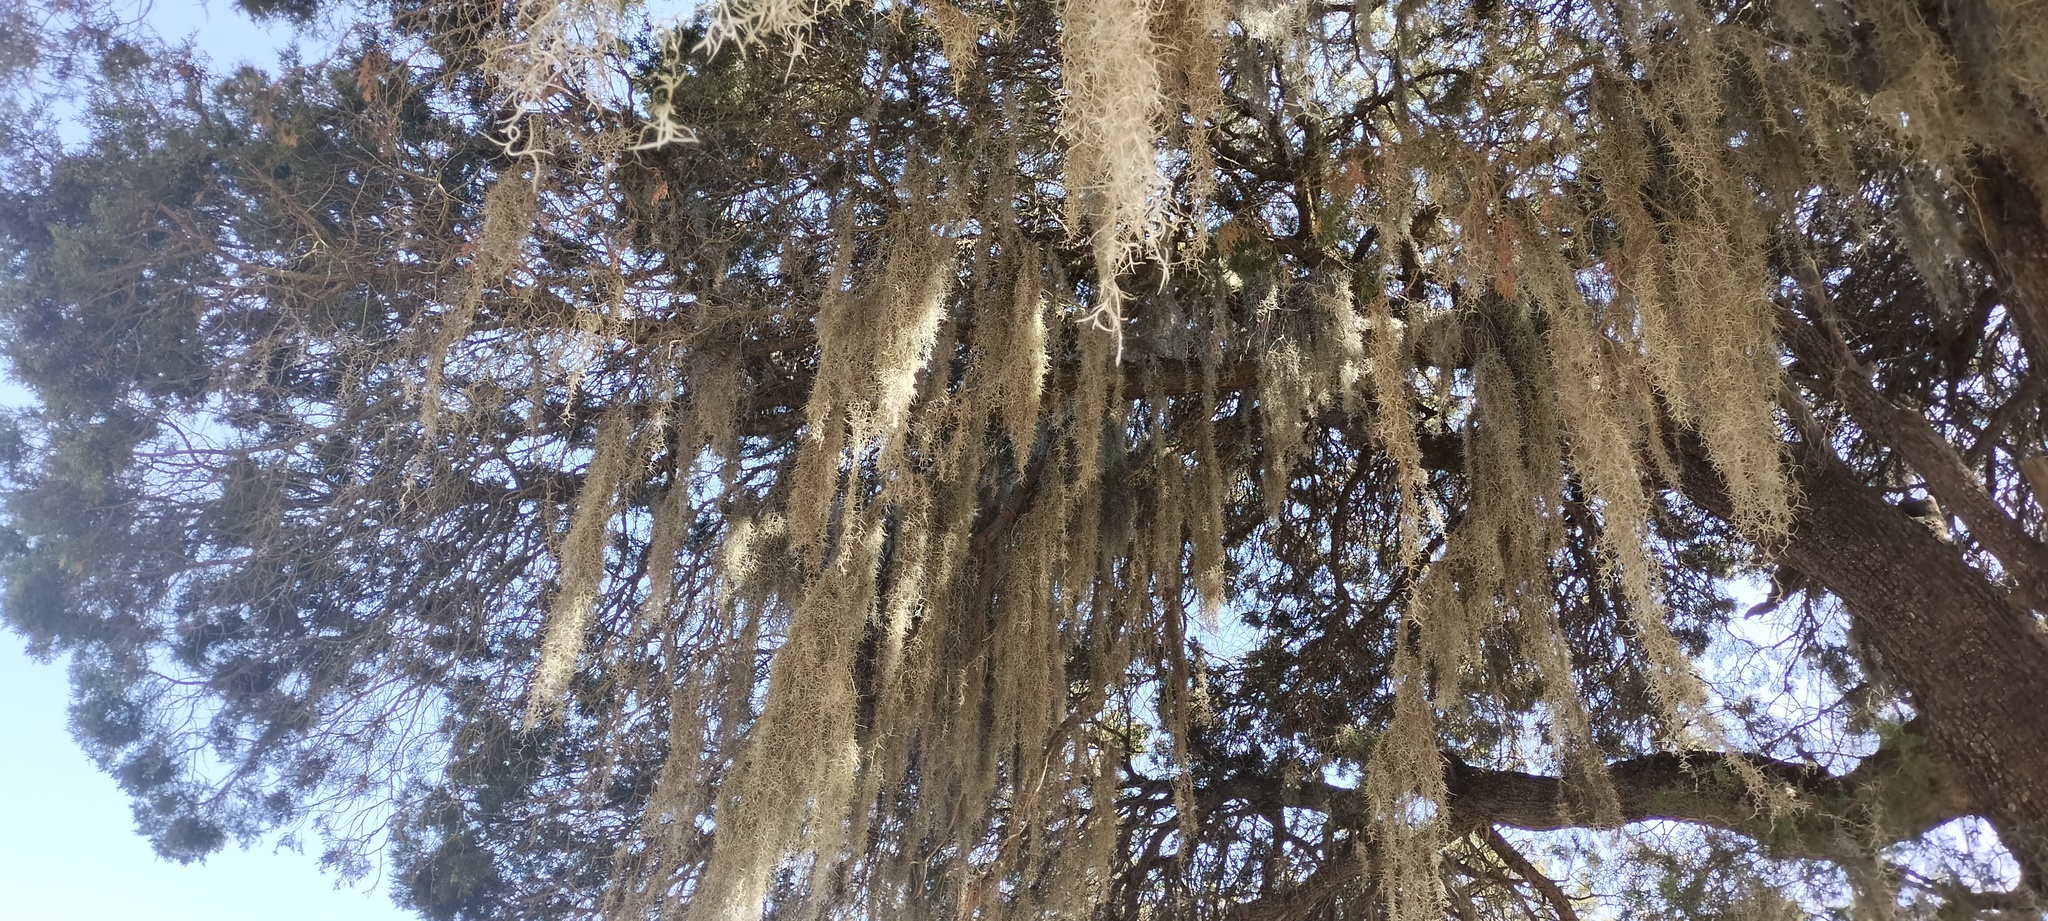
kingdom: Plantae
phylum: Tracheophyta
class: Liliopsida
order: Poales
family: Bromeliaceae
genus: Tillandsia
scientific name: Tillandsia usneoides
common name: Spanish moss
